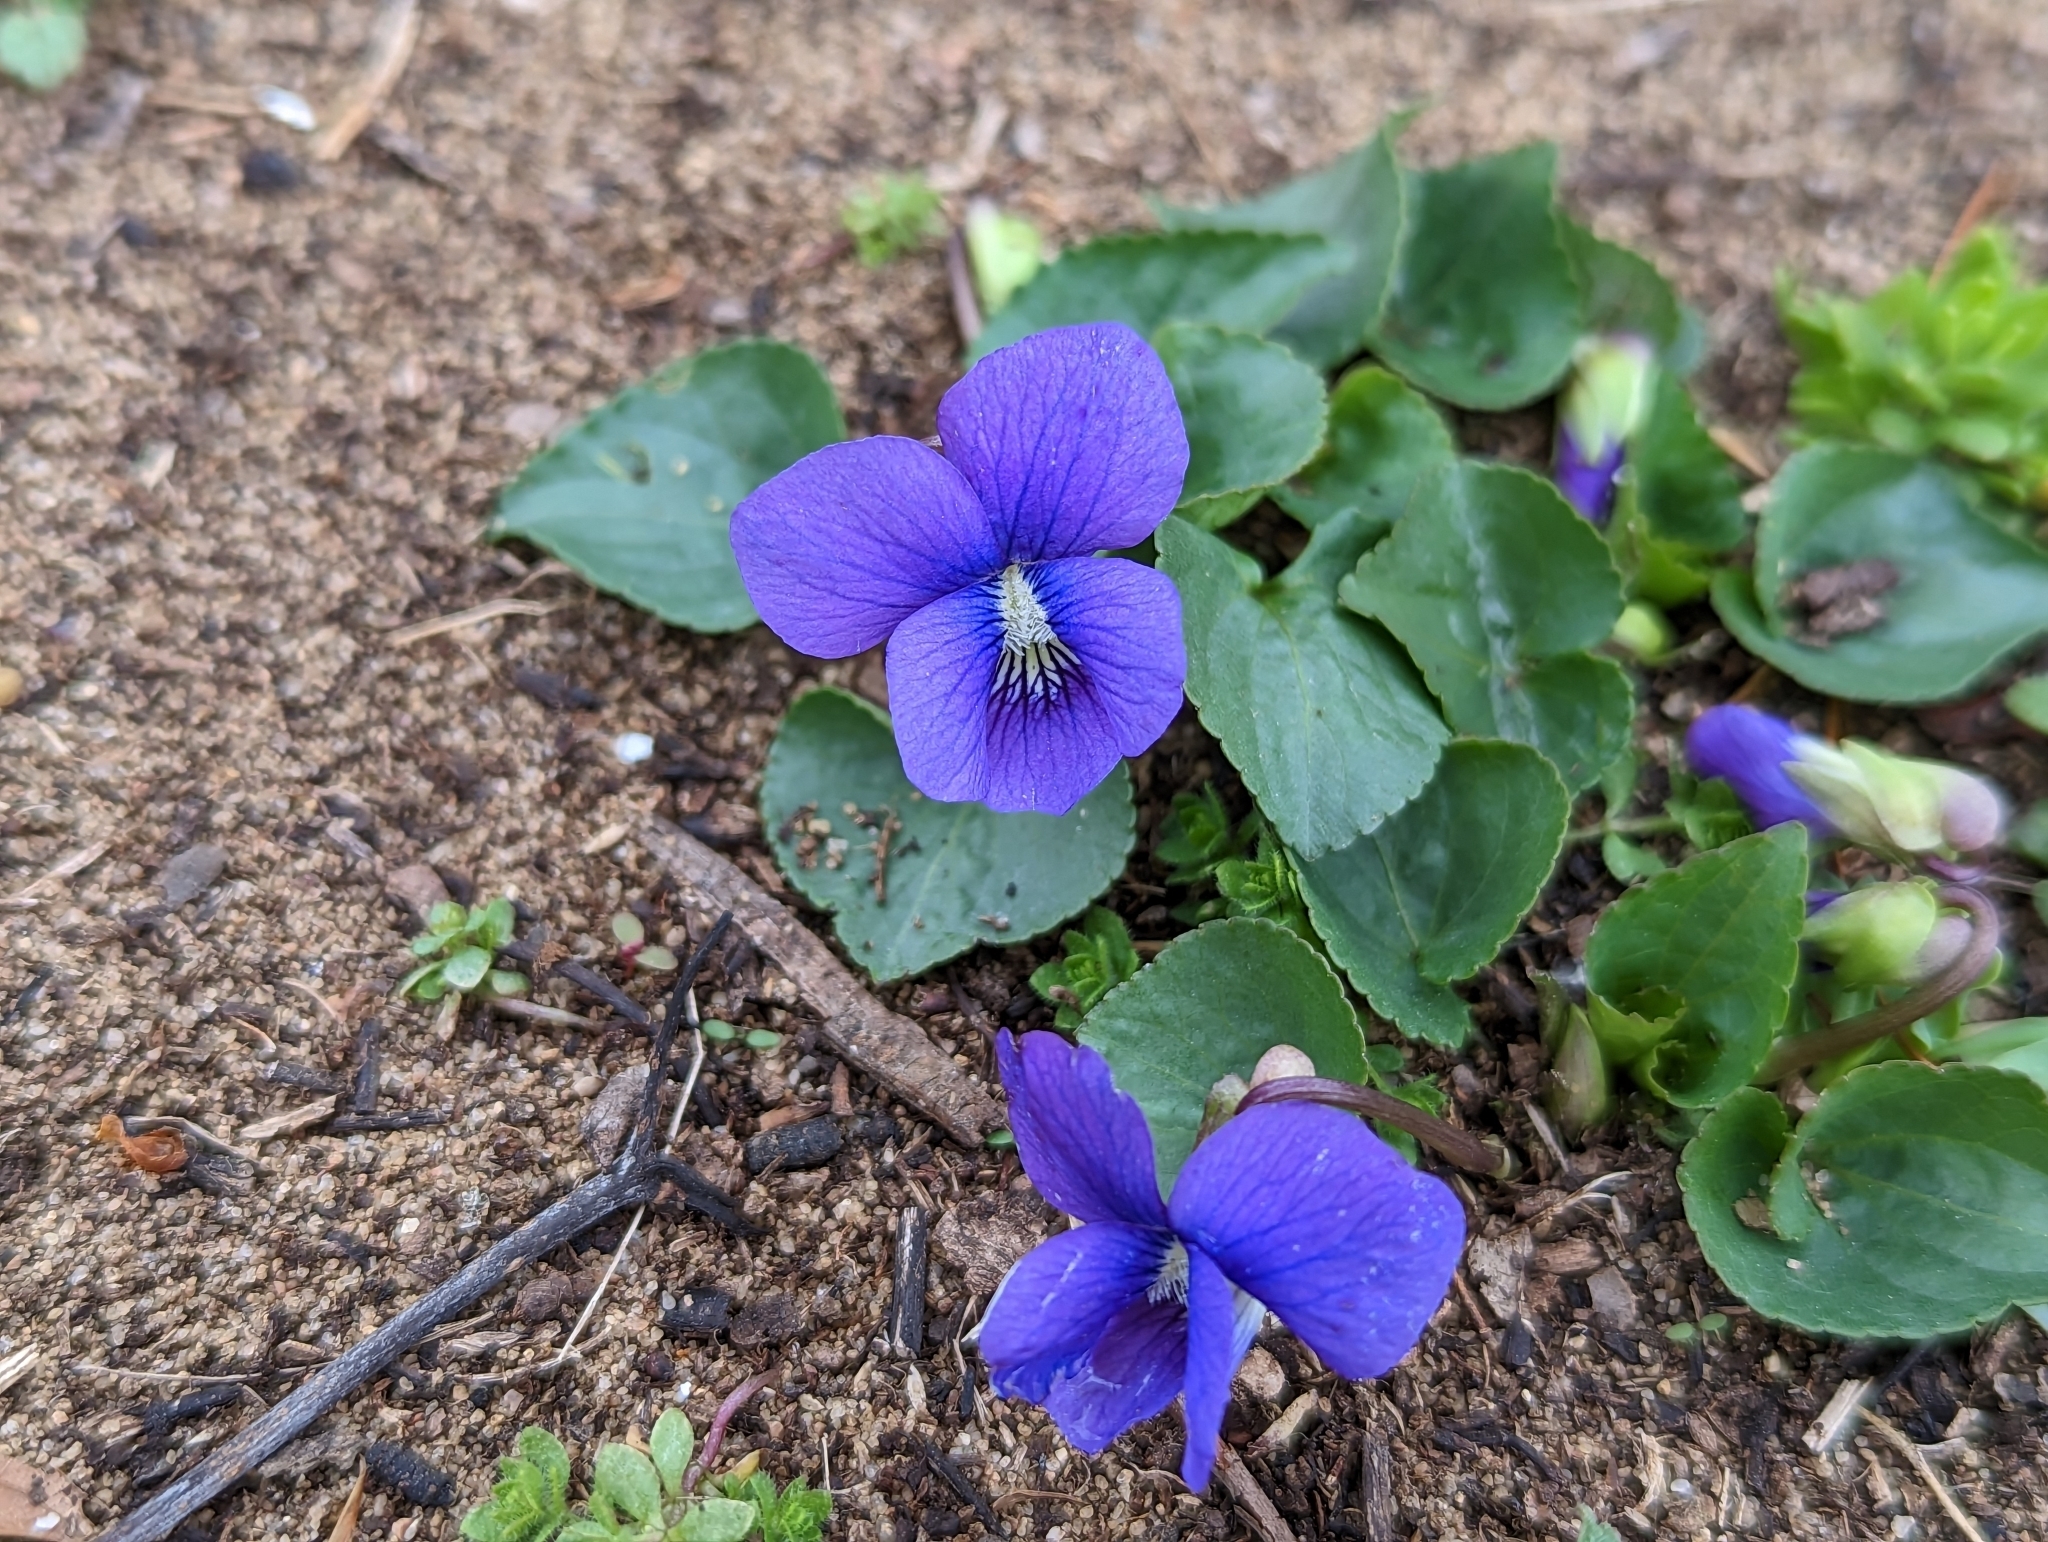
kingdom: Plantae
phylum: Tracheophyta
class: Magnoliopsida
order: Malpighiales
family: Violaceae
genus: Viola
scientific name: Viola sororia
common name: Dooryard violet
